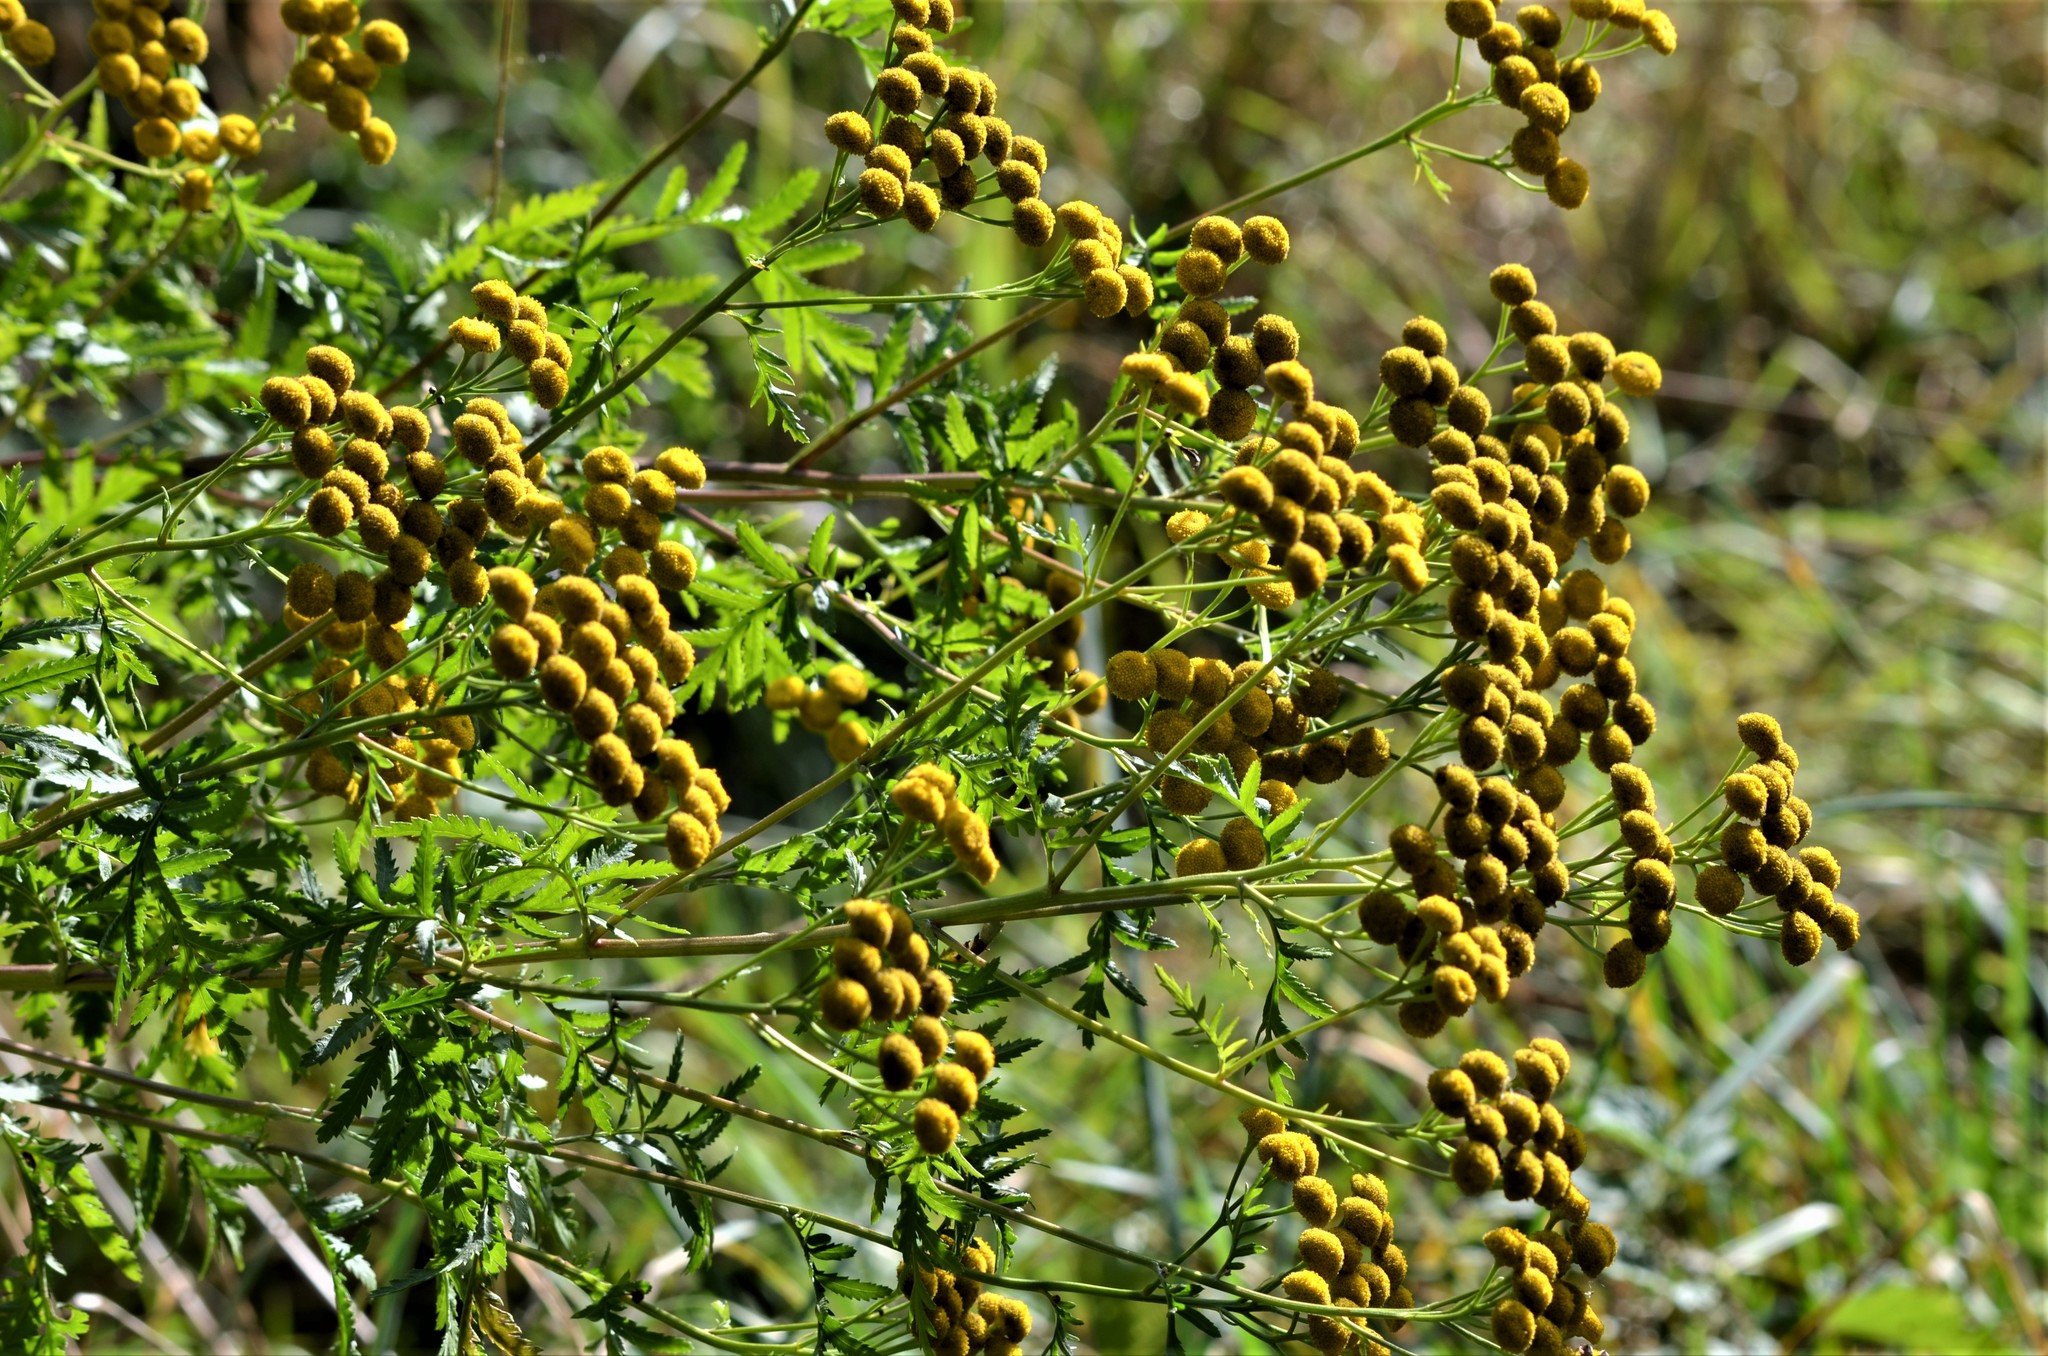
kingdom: Plantae
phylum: Tracheophyta
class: Magnoliopsida
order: Asterales
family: Asteraceae
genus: Tanacetum
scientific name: Tanacetum vulgare
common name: Common tansy
